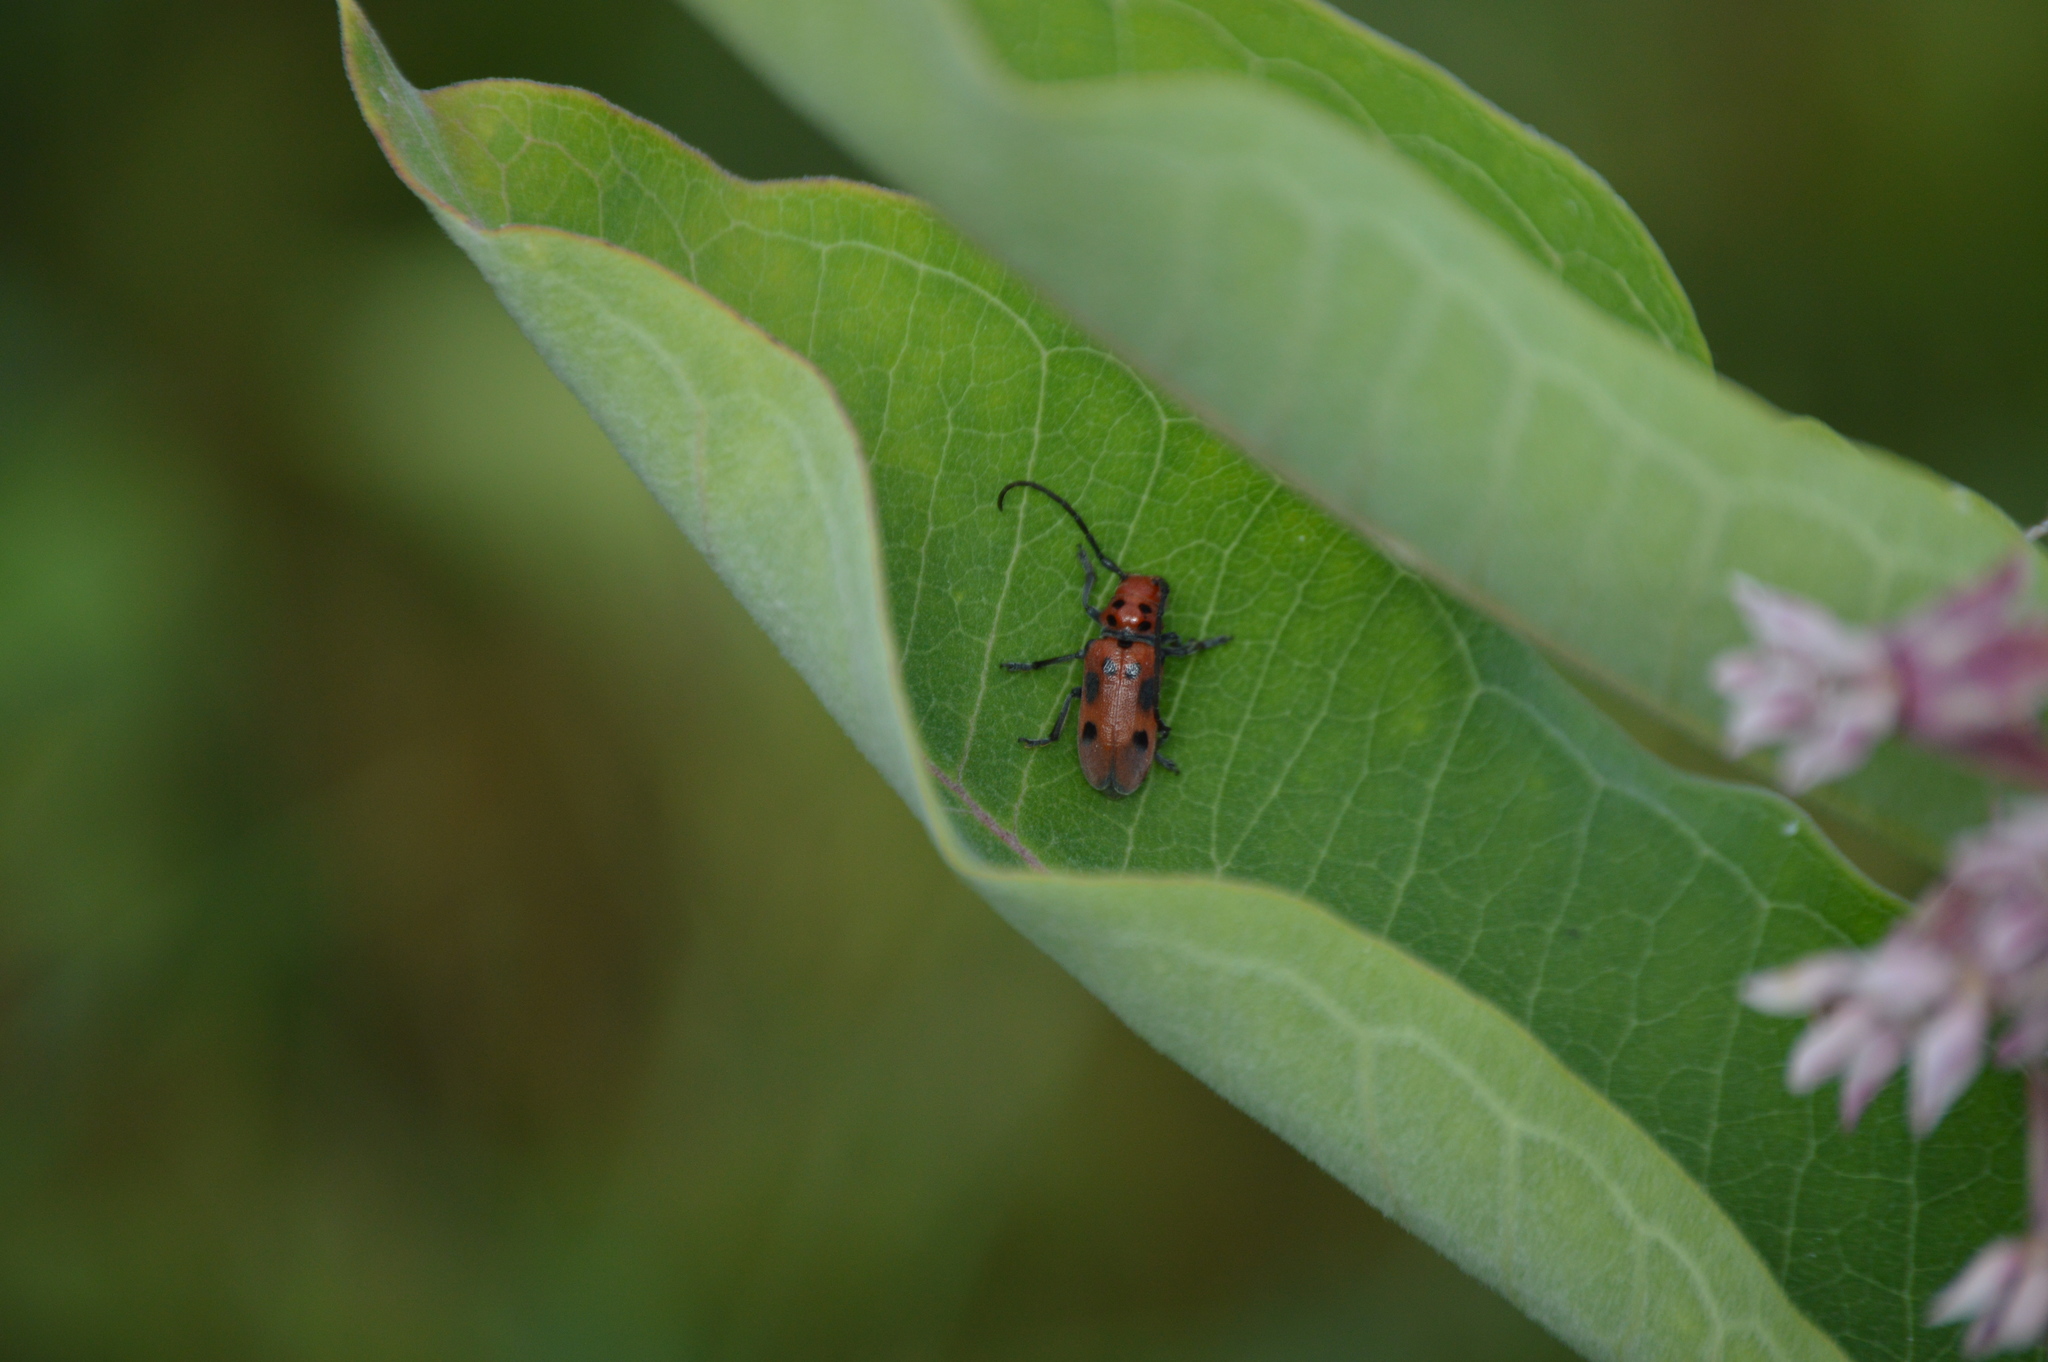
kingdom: Animalia
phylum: Arthropoda
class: Insecta
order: Coleoptera
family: Cerambycidae
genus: Tetraopes
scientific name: Tetraopes tetrophthalmus
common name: Red milkweed beetle
